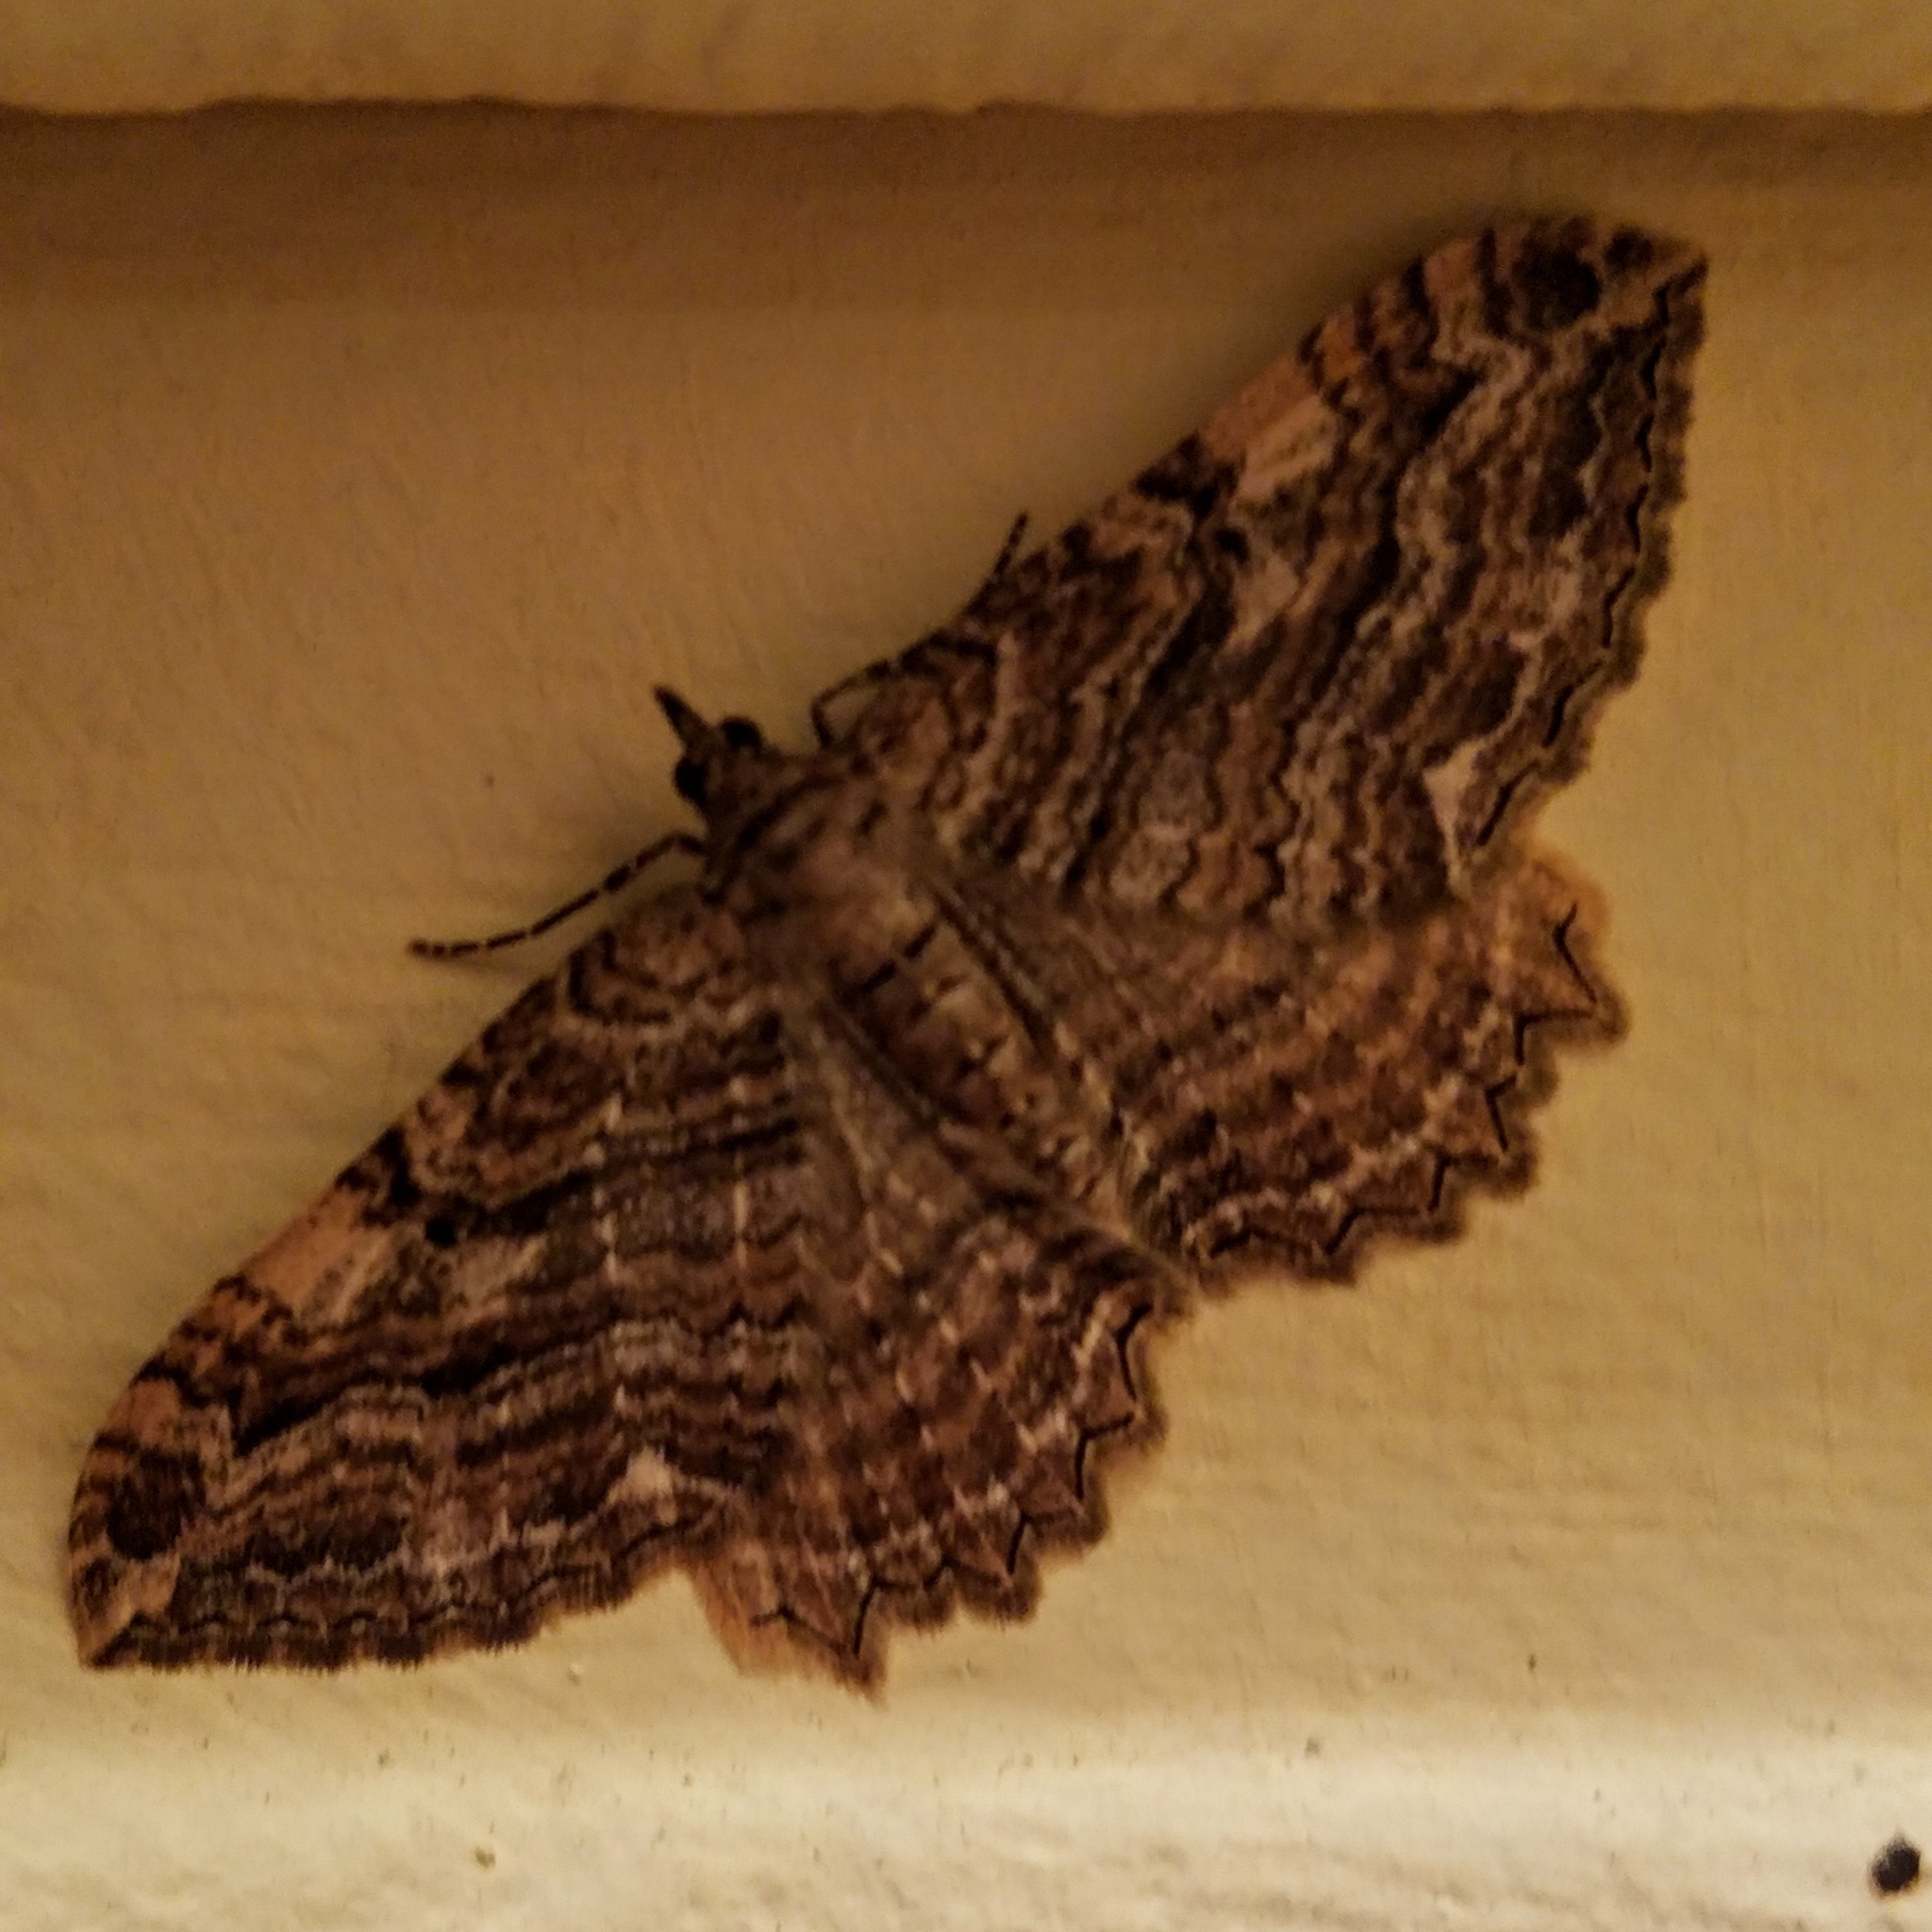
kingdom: Animalia
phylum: Arthropoda
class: Insecta
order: Lepidoptera
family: Geometridae
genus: Rheumaptera
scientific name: Rheumaptera
